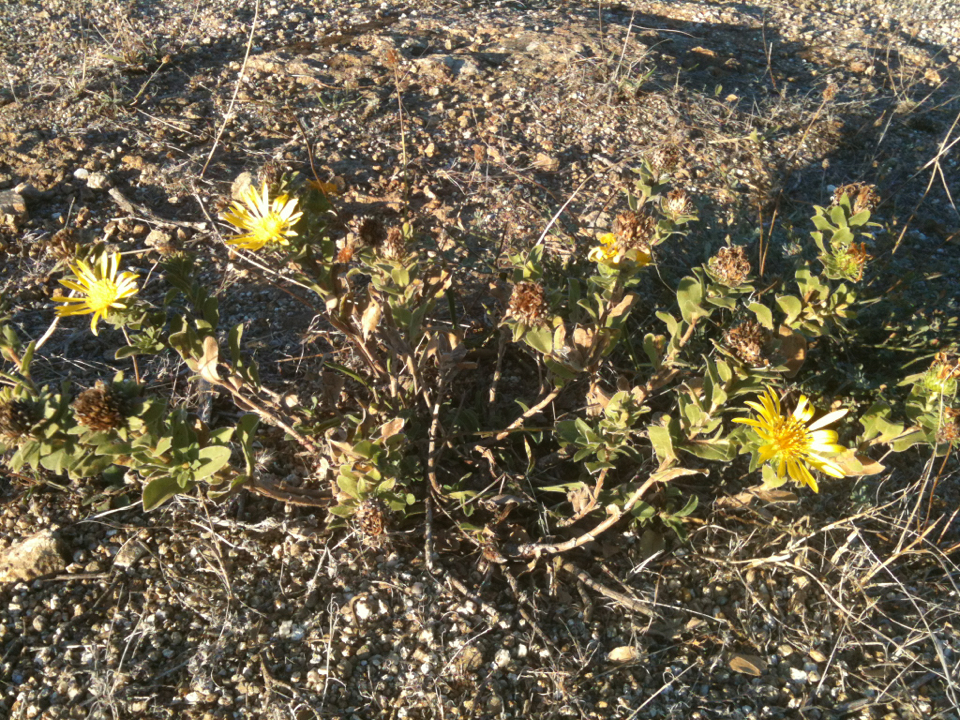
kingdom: Plantae
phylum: Tracheophyta
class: Magnoliopsida
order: Asterales
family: Asteraceae
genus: Grindelia
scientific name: Grindelia hirsutula
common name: Hairy gumweed
